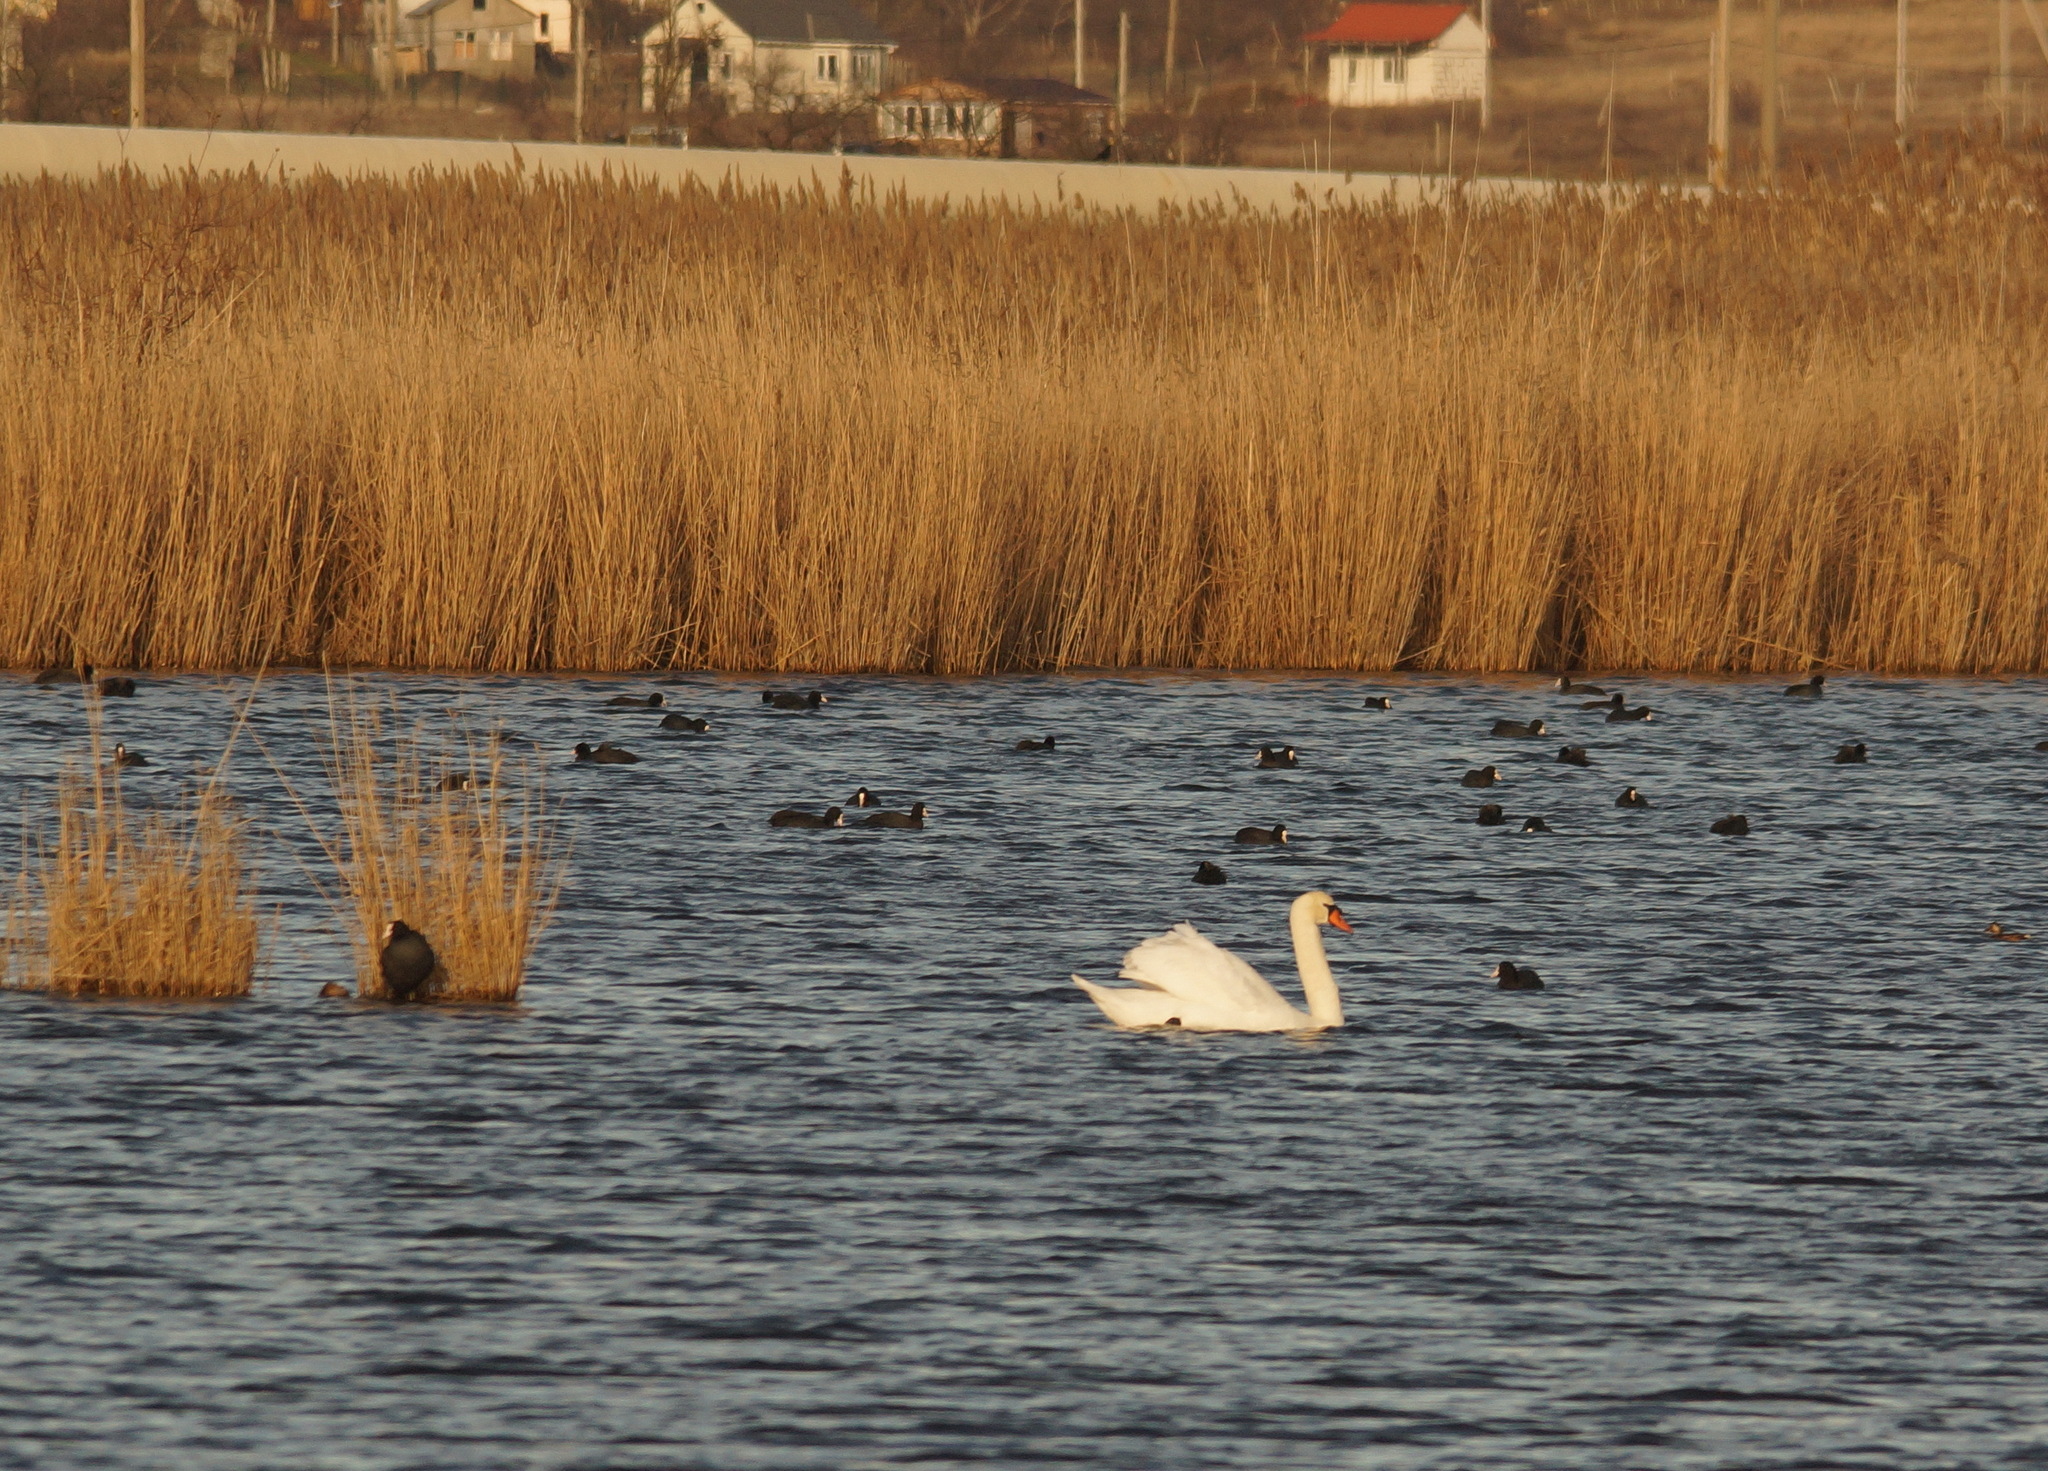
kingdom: Animalia
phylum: Chordata
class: Aves
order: Anseriformes
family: Anatidae
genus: Cygnus
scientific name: Cygnus olor
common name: Mute swan
